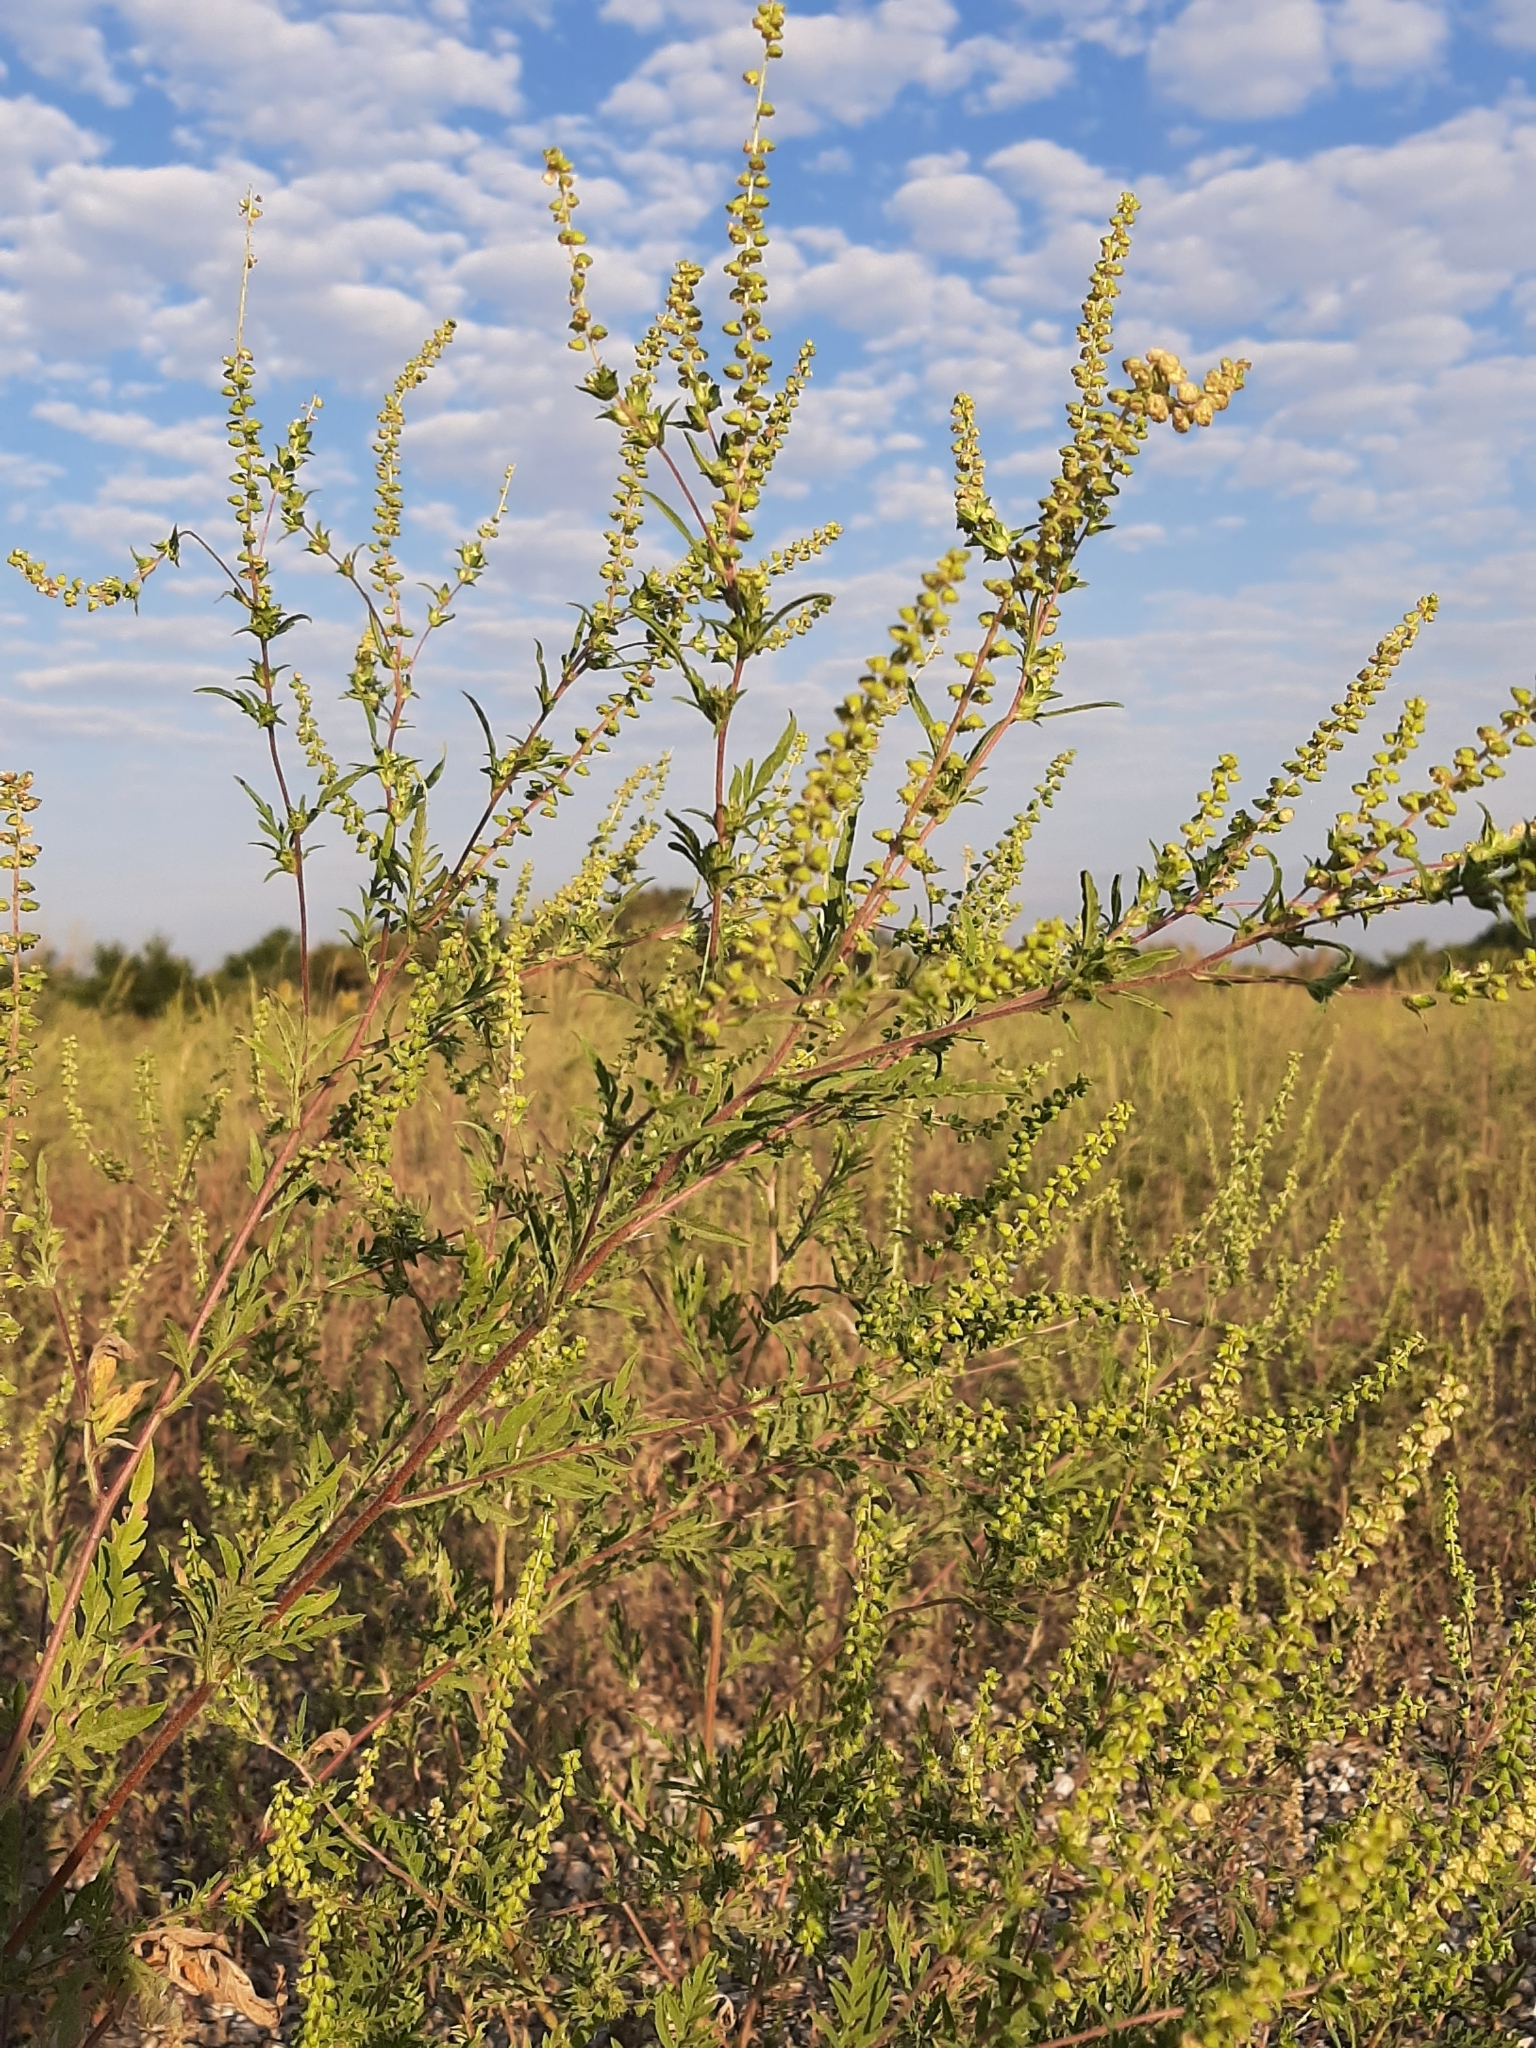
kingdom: Plantae
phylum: Tracheophyta
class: Magnoliopsida
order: Asterales
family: Asteraceae
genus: Ambrosia
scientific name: Ambrosia artemisiifolia
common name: Annual ragweed
